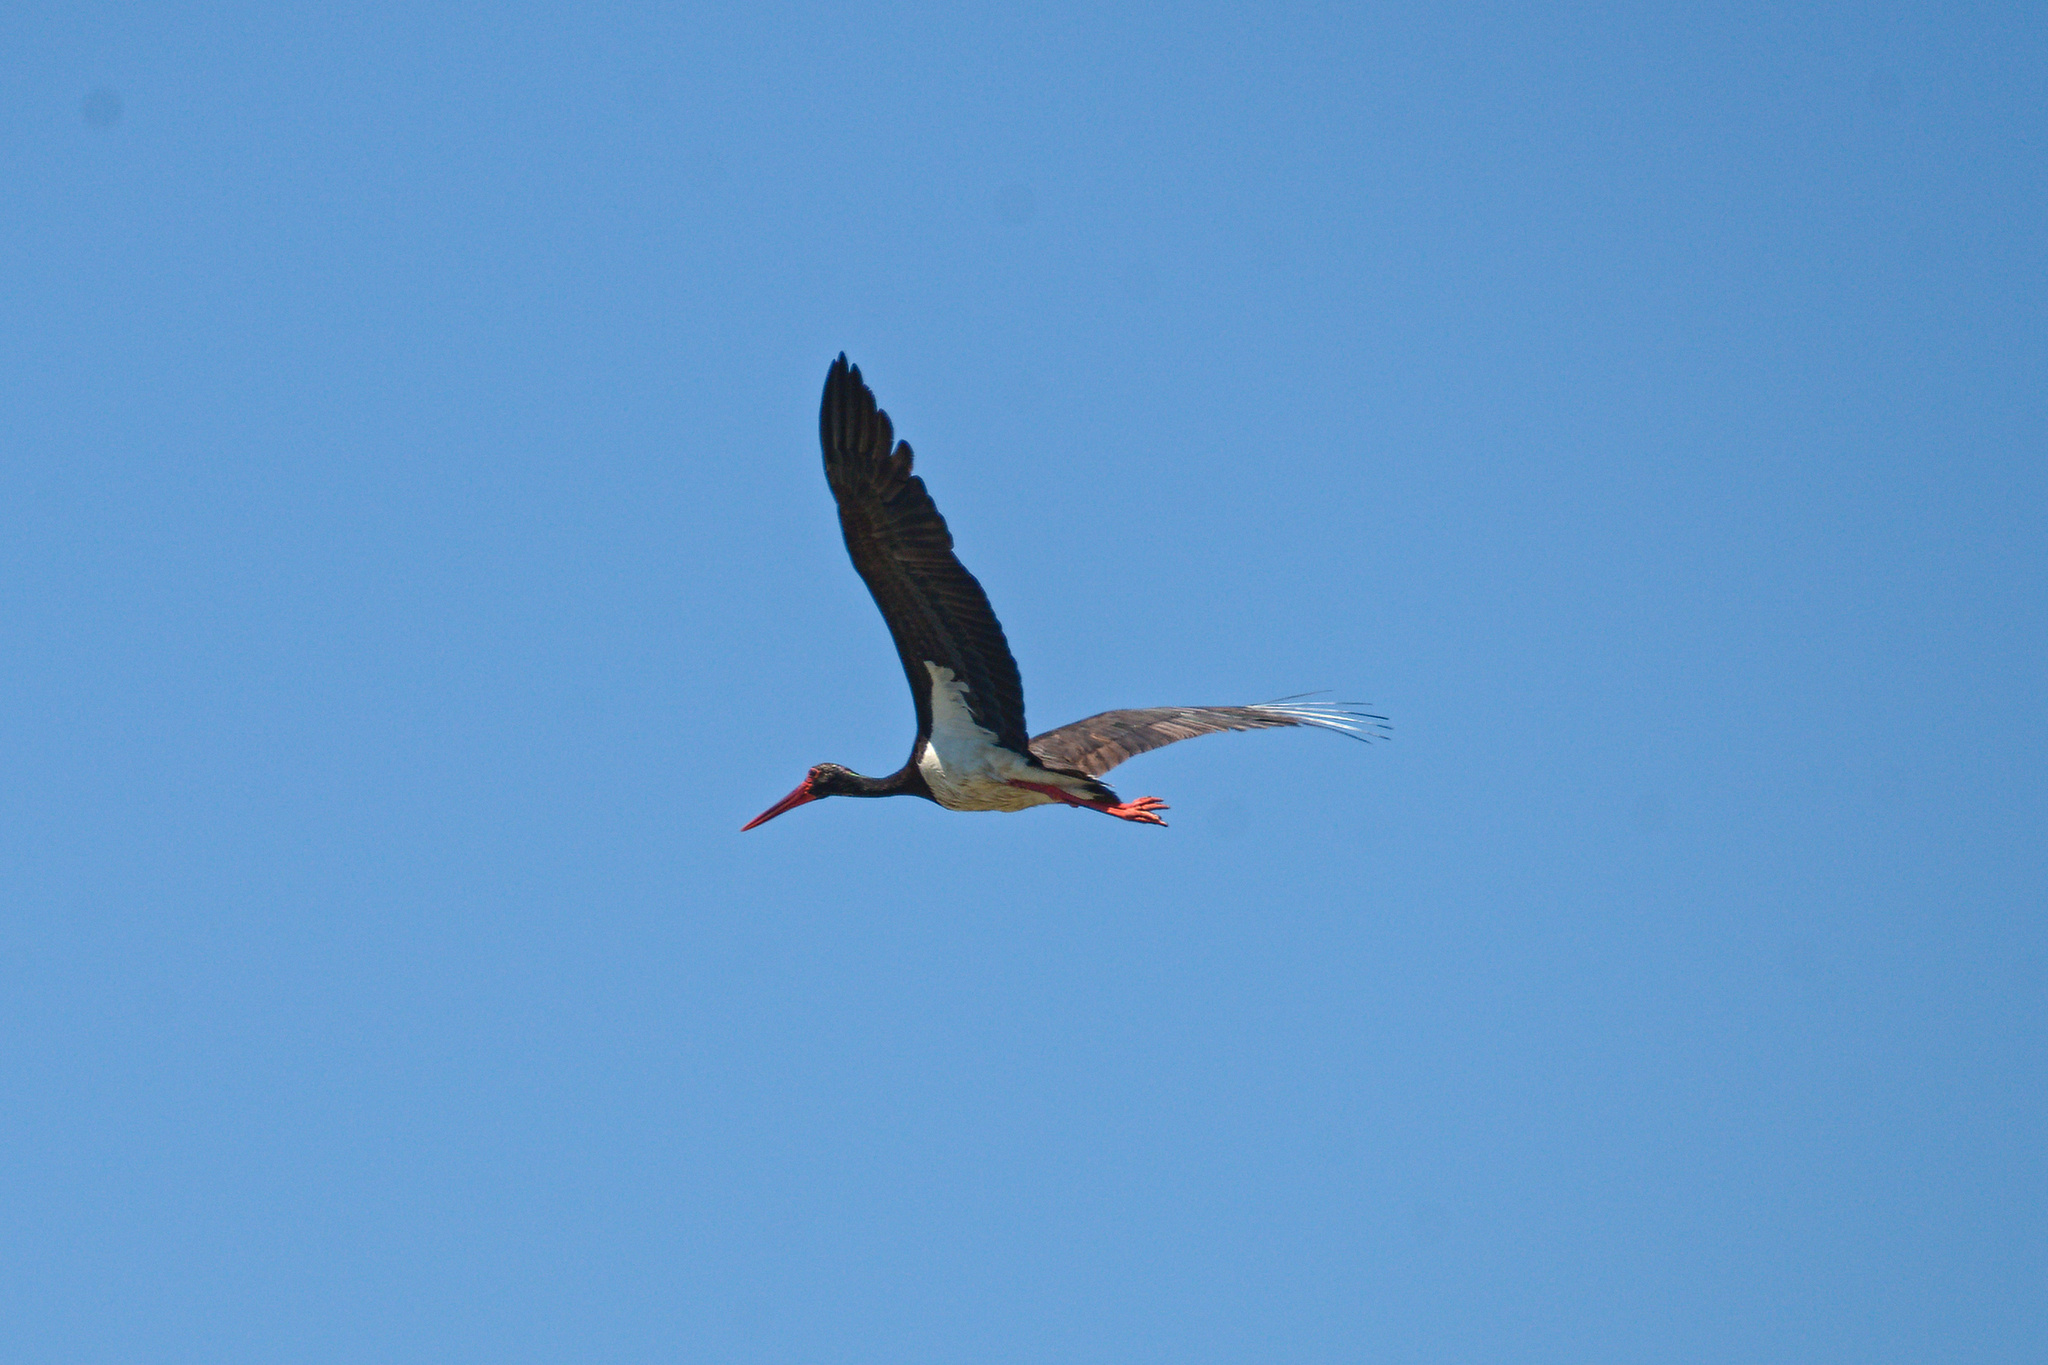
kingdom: Animalia
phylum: Chordata
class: Aves
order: Ciconiiformes
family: Ciconiidae
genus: Ciconia
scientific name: Ciconia nigra
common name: Black stork
